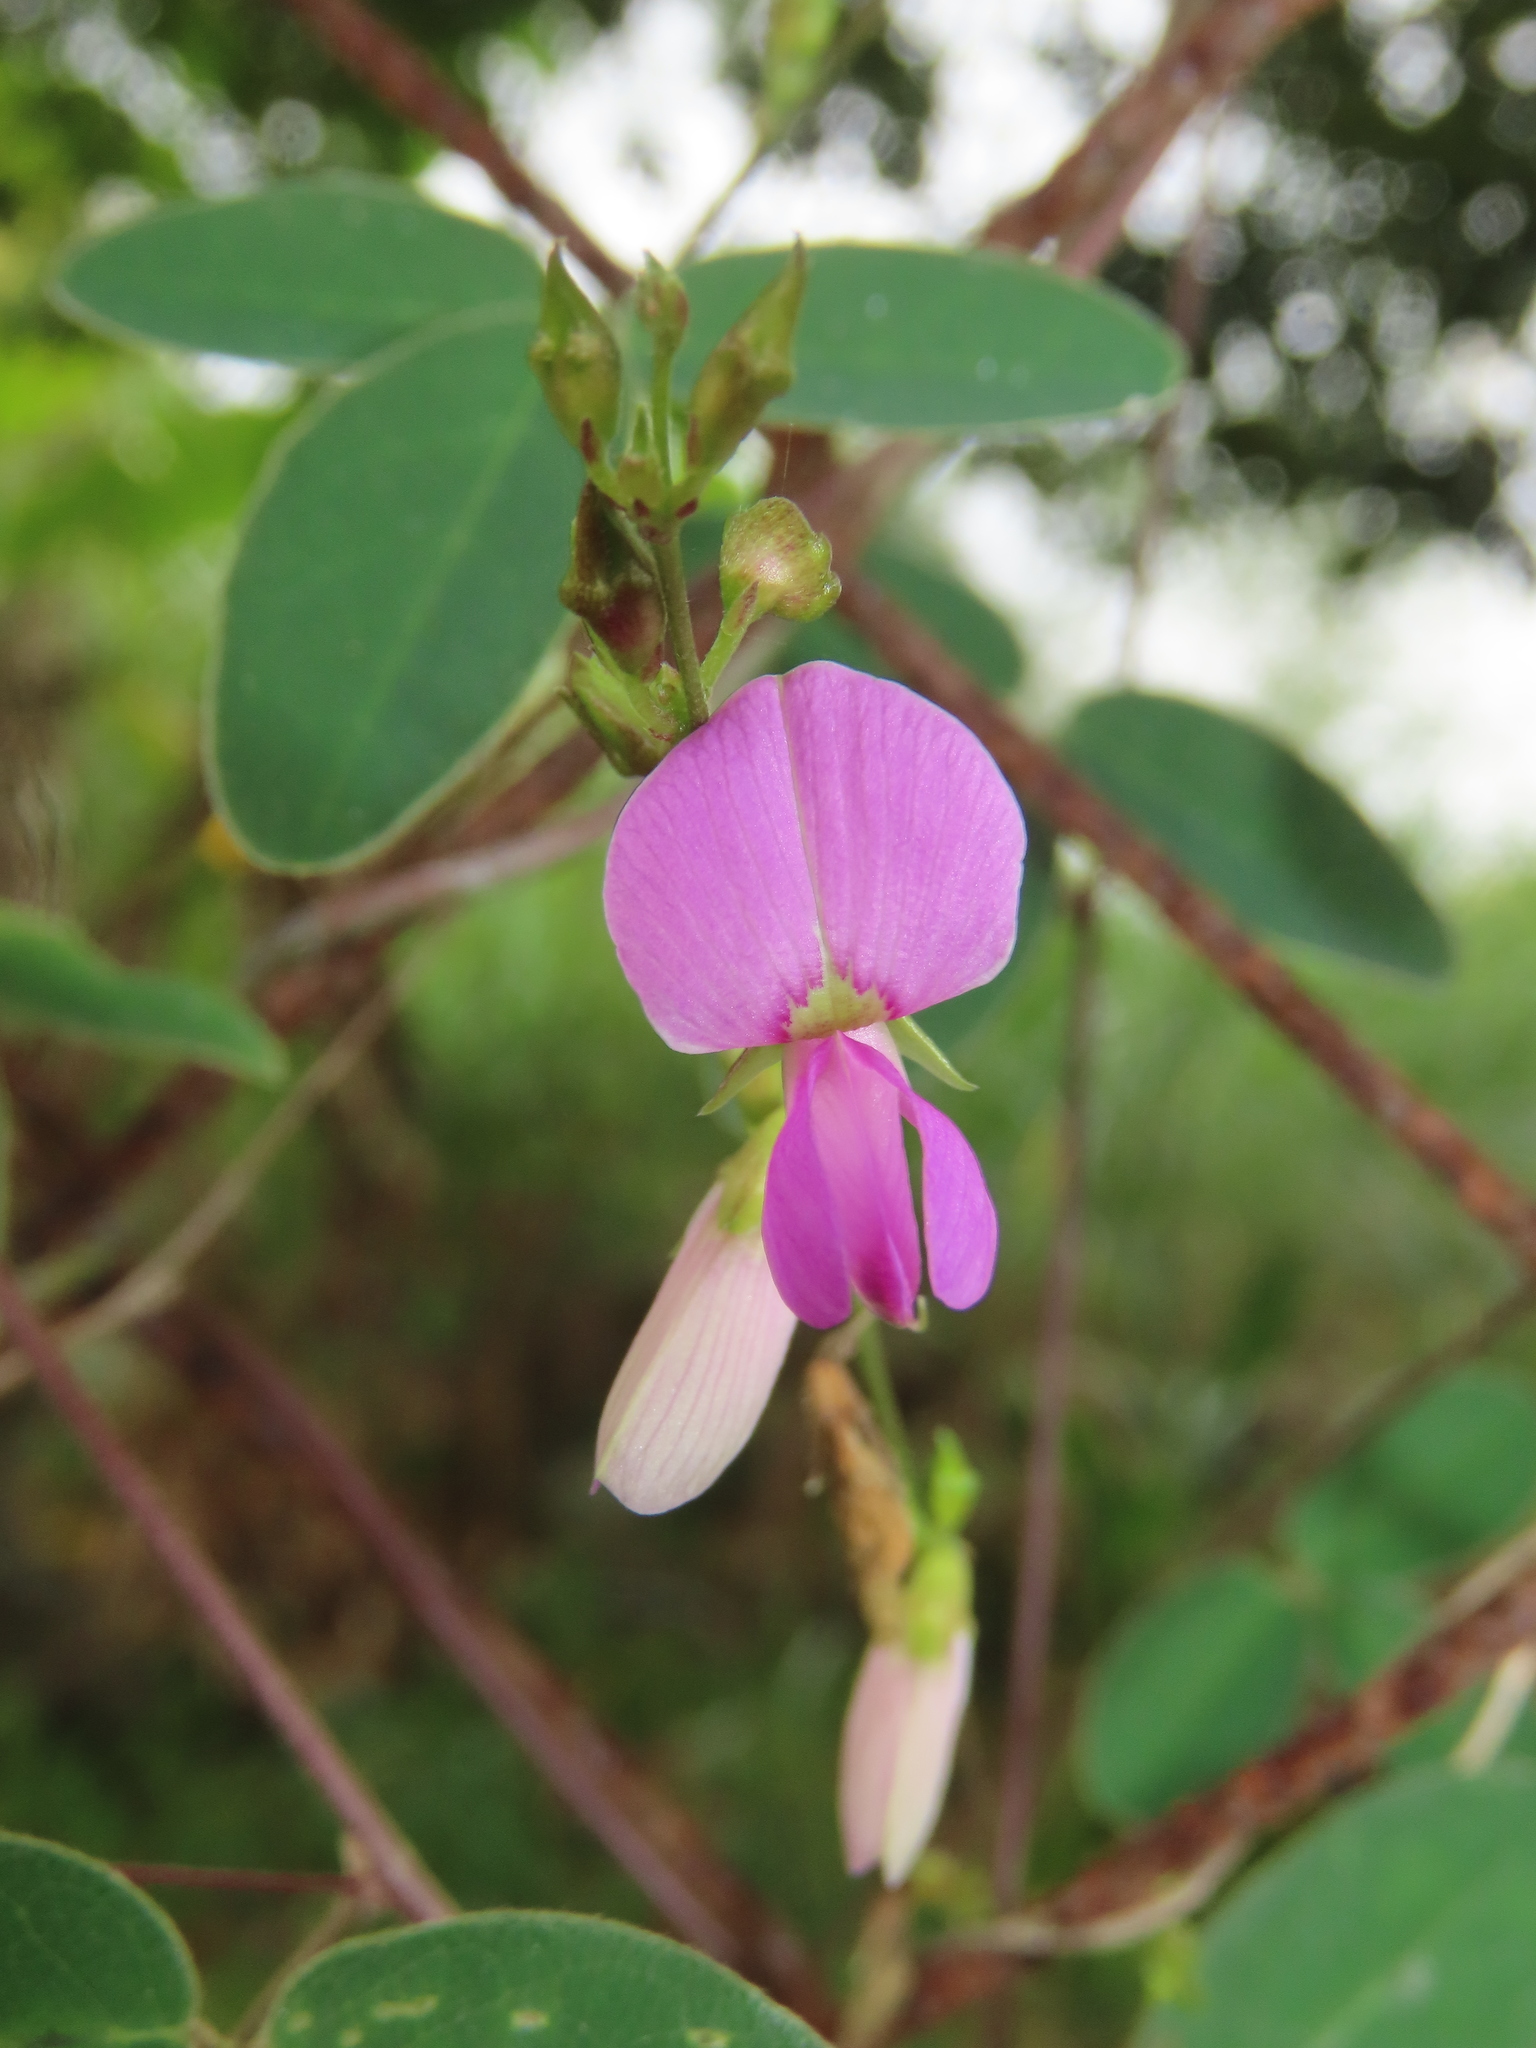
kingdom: Plantae
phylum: Tracheophyta
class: Magnoliopsida
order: Fabales
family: Fabaceae
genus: Galactia
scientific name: Galactia striata
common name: Florida hammock milkpea
